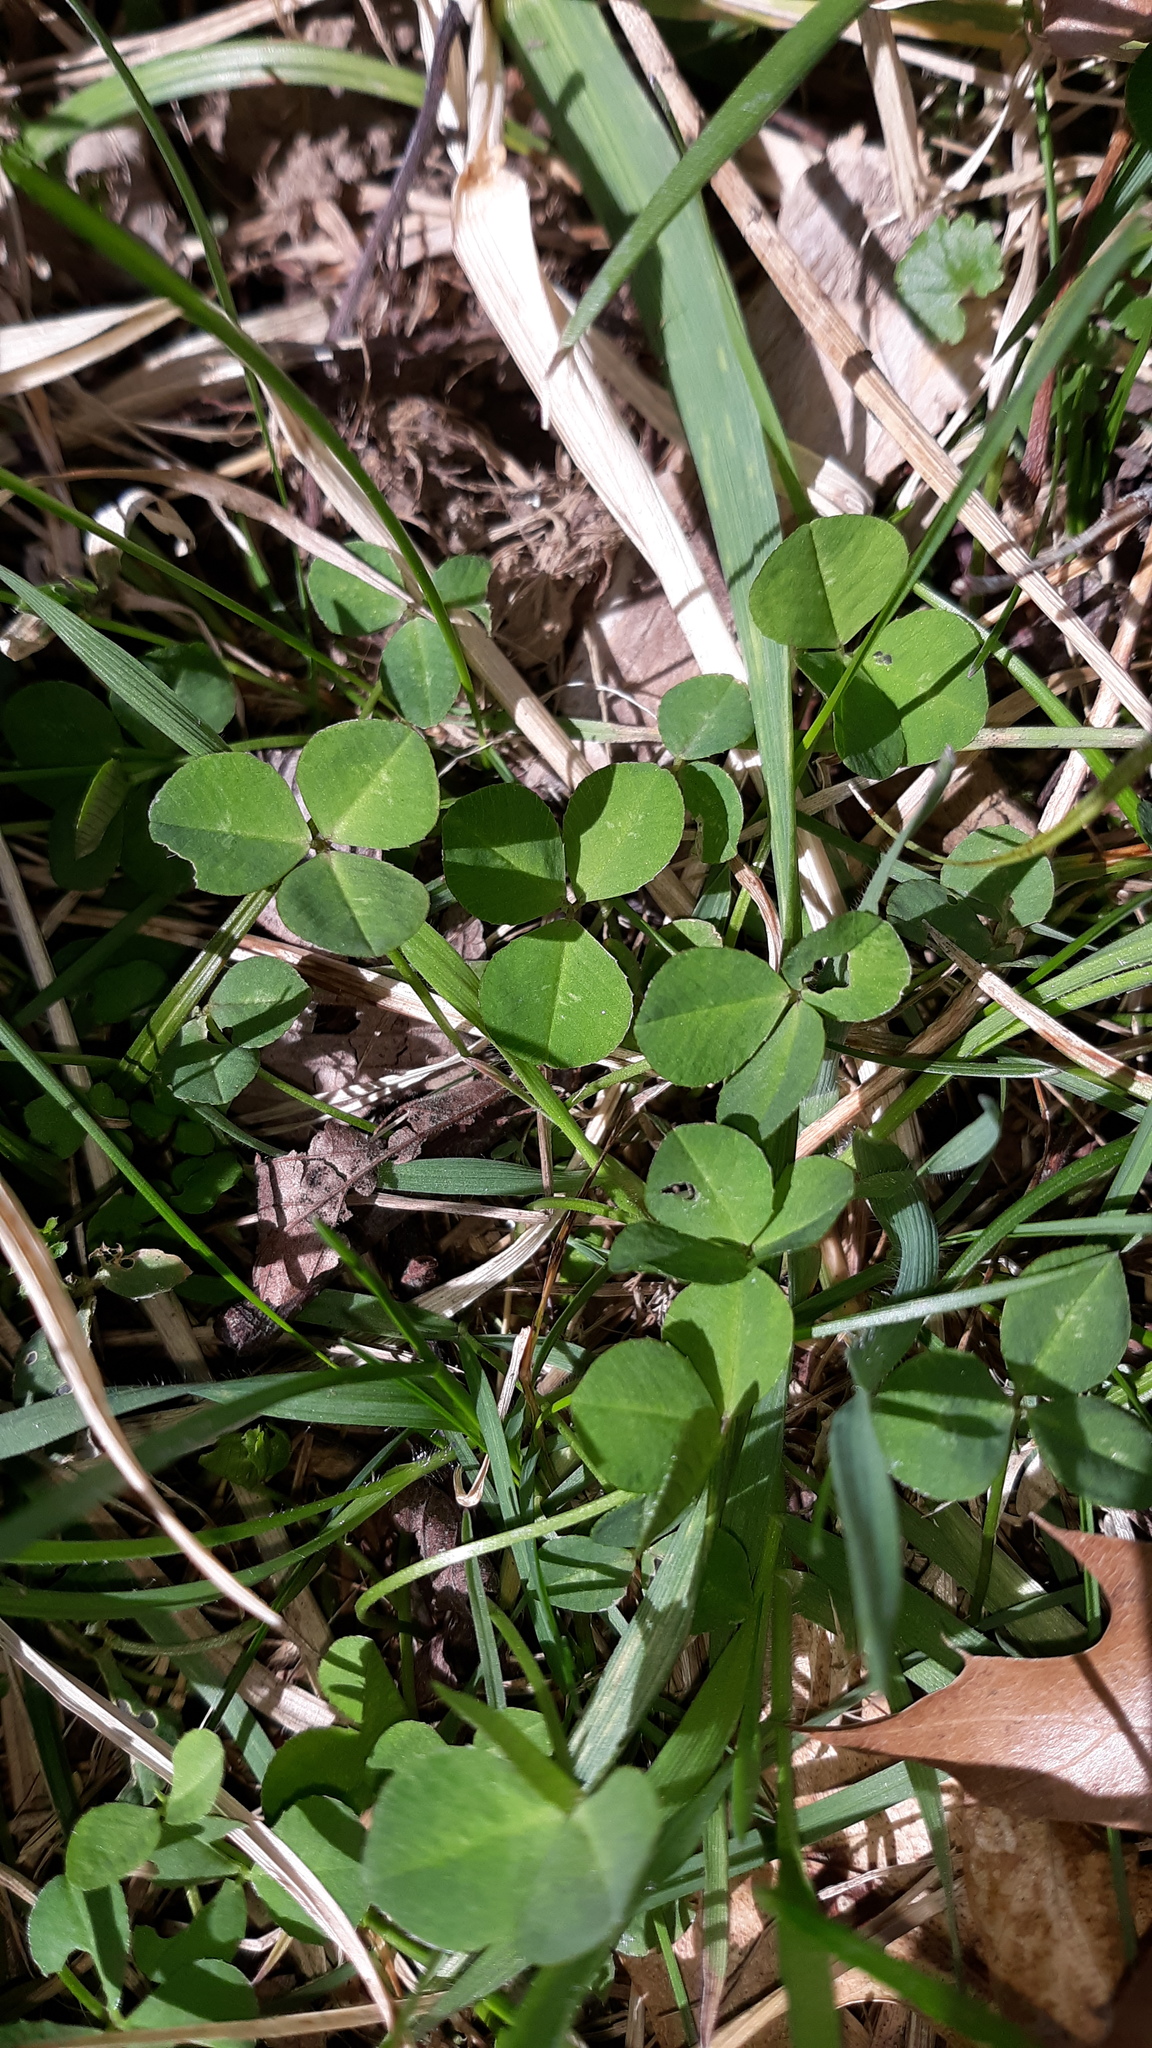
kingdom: Plantae
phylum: Tracheophyta
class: Magnoliopsida
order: Fabales
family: Fabaceae
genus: Trifolium
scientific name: Trifolium repens
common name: White clover
